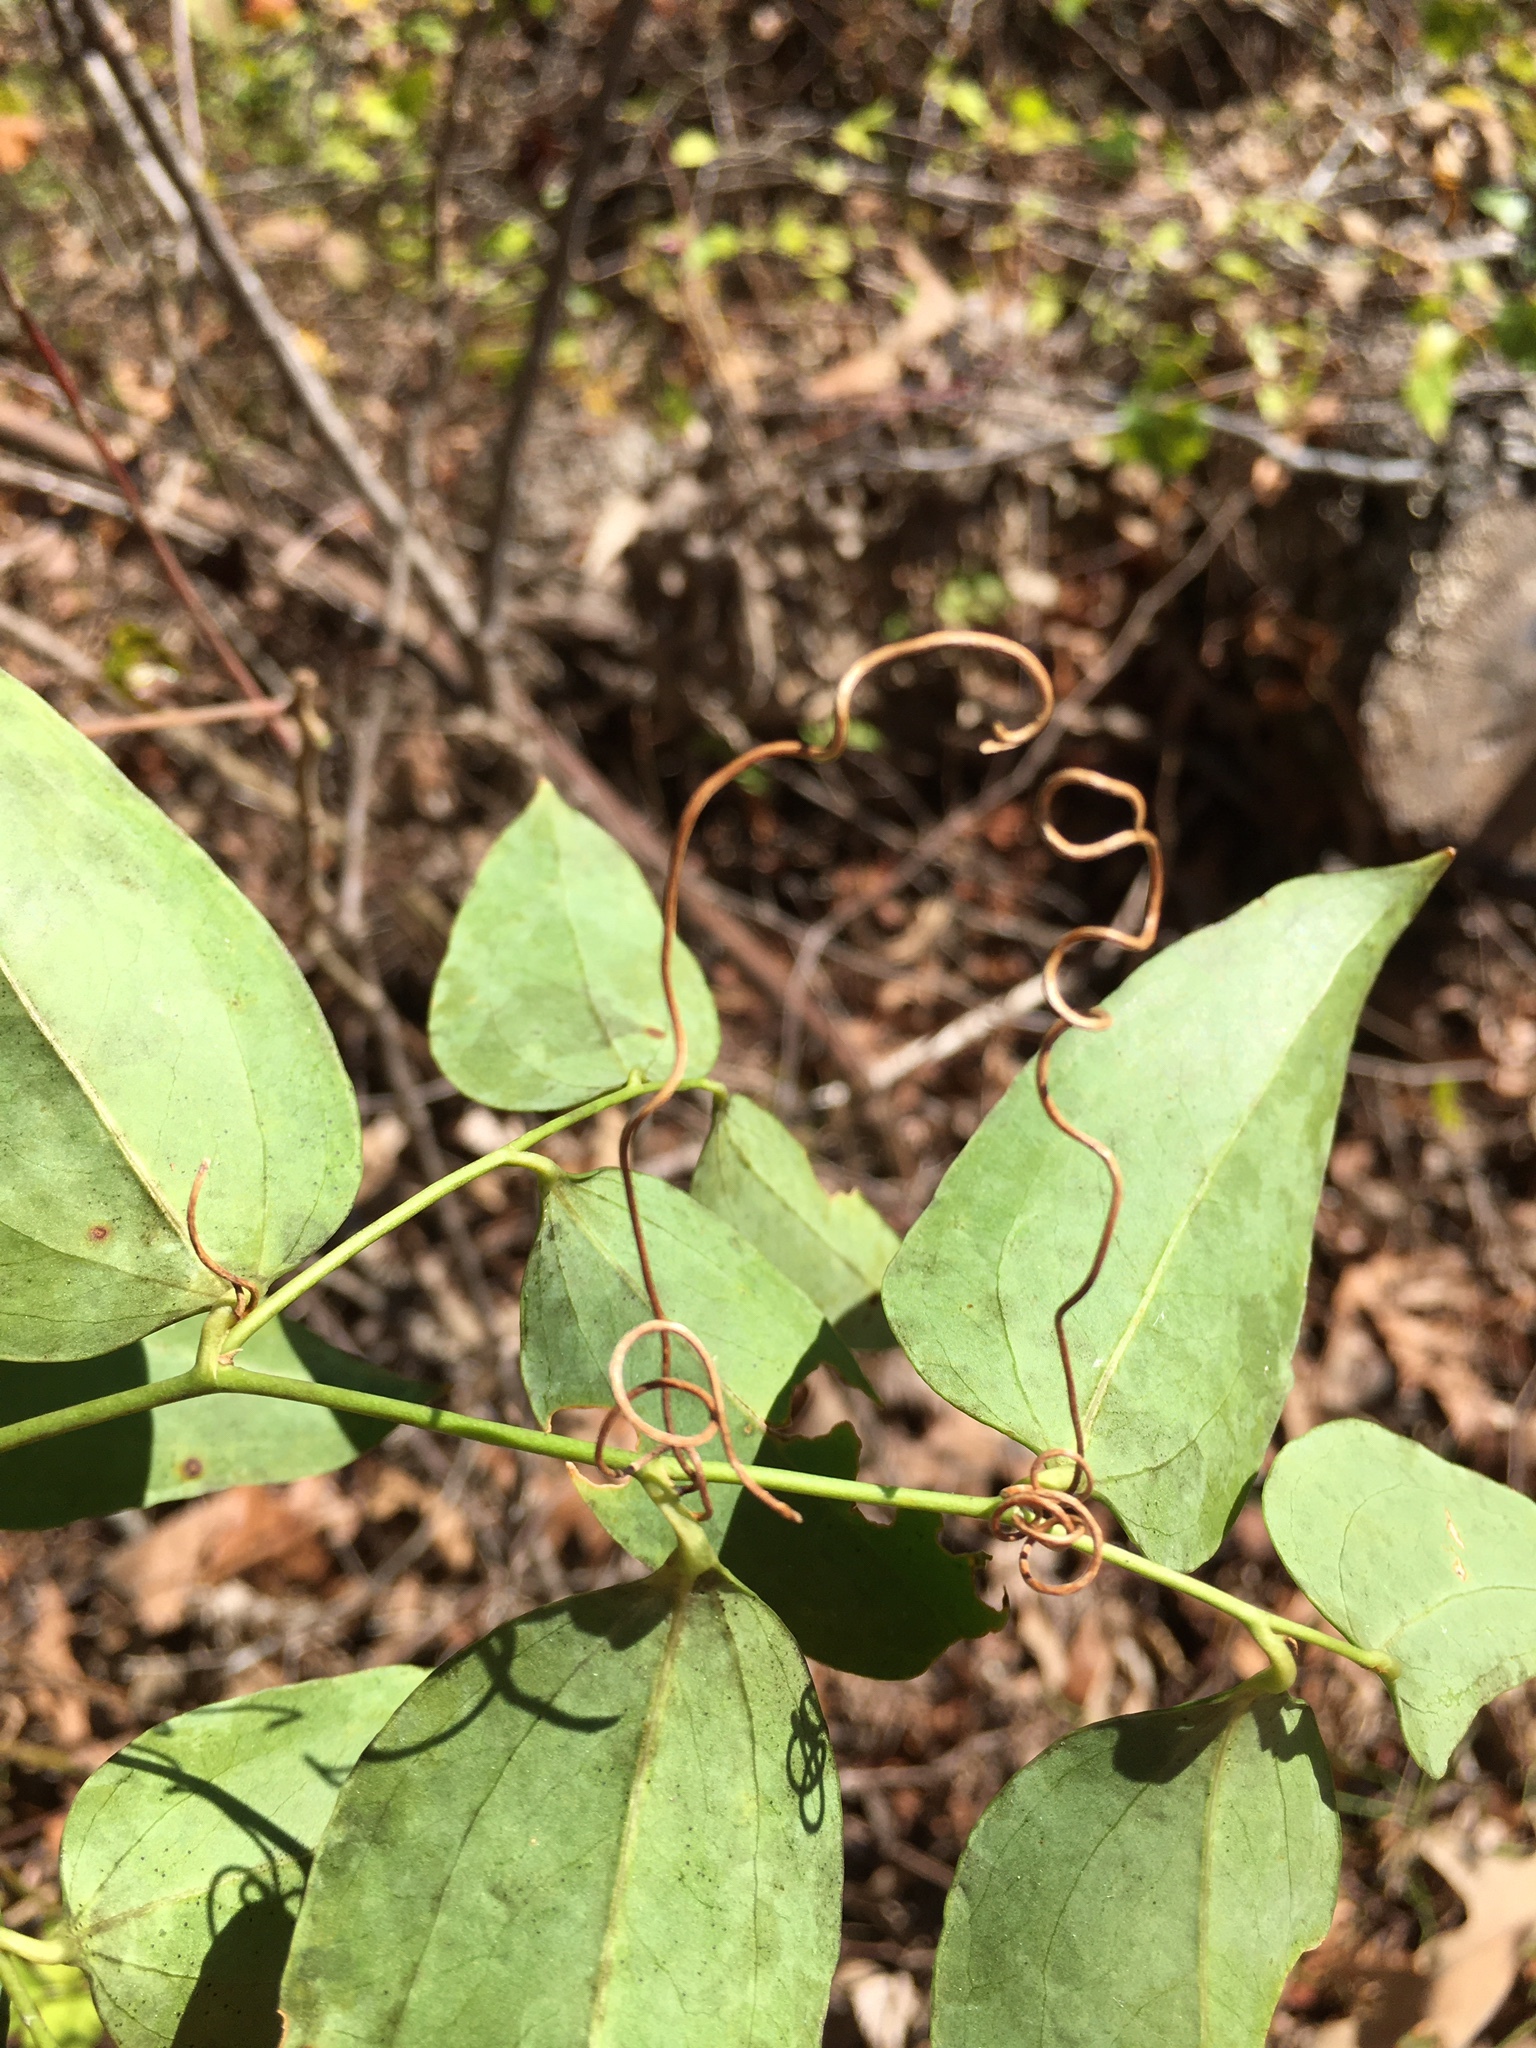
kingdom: Plantae
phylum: Tracheophyta
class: Liliopsida
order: Liliales
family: Smilacaceae
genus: Smilax
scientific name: Smilax maritima
